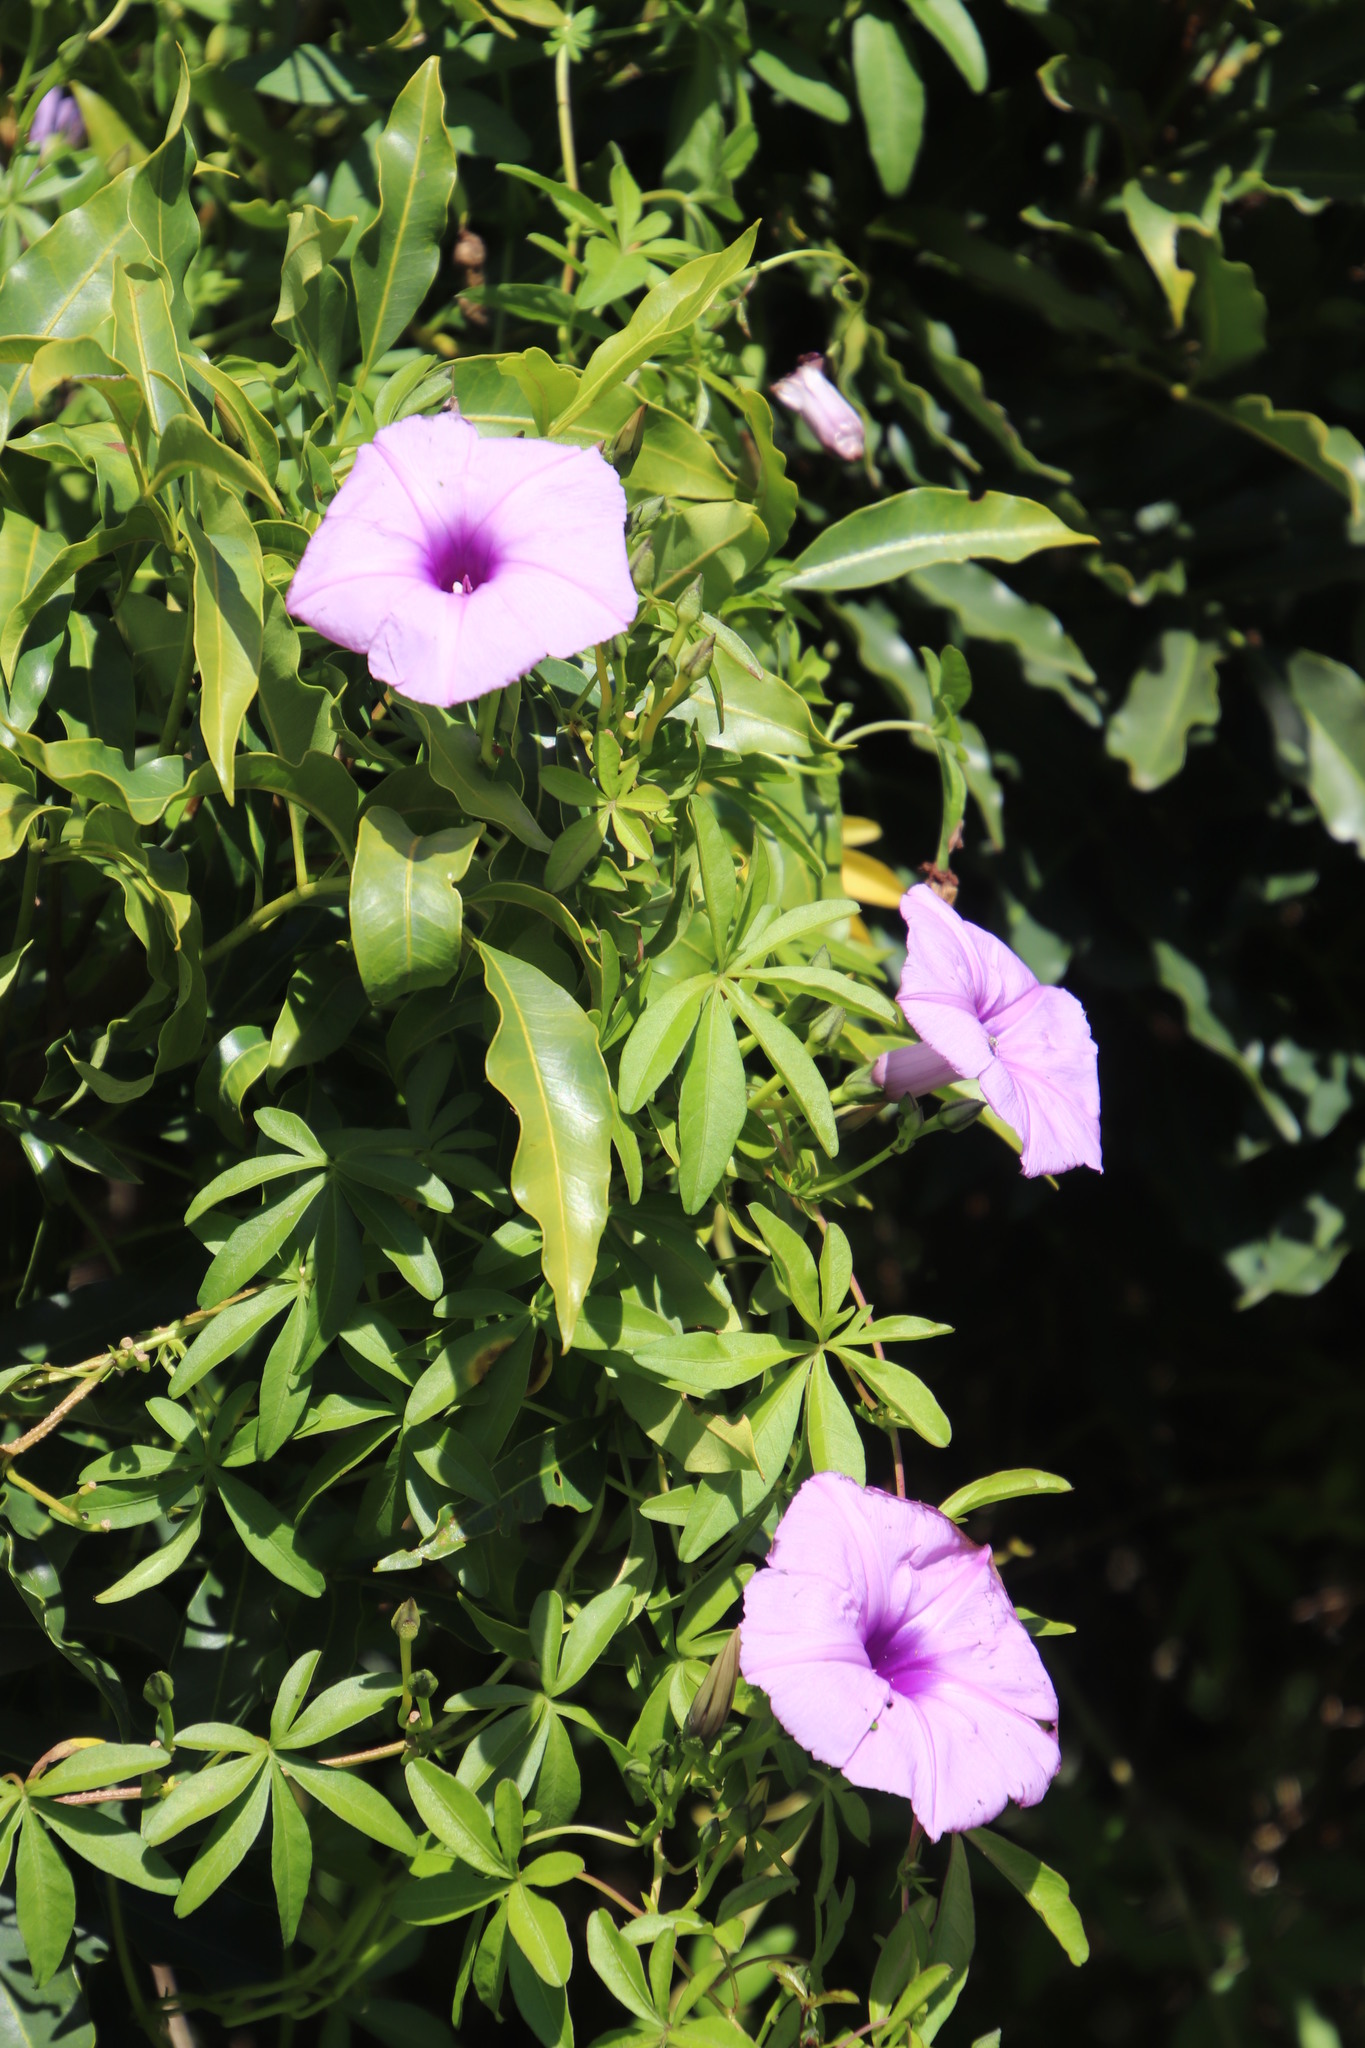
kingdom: Plantae
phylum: Tracheophyta
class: Magnoliopsida
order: Solanales
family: Convolvulaceae
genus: Ipomoea
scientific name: Ipomoea cairica
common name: Mile a minute vine
